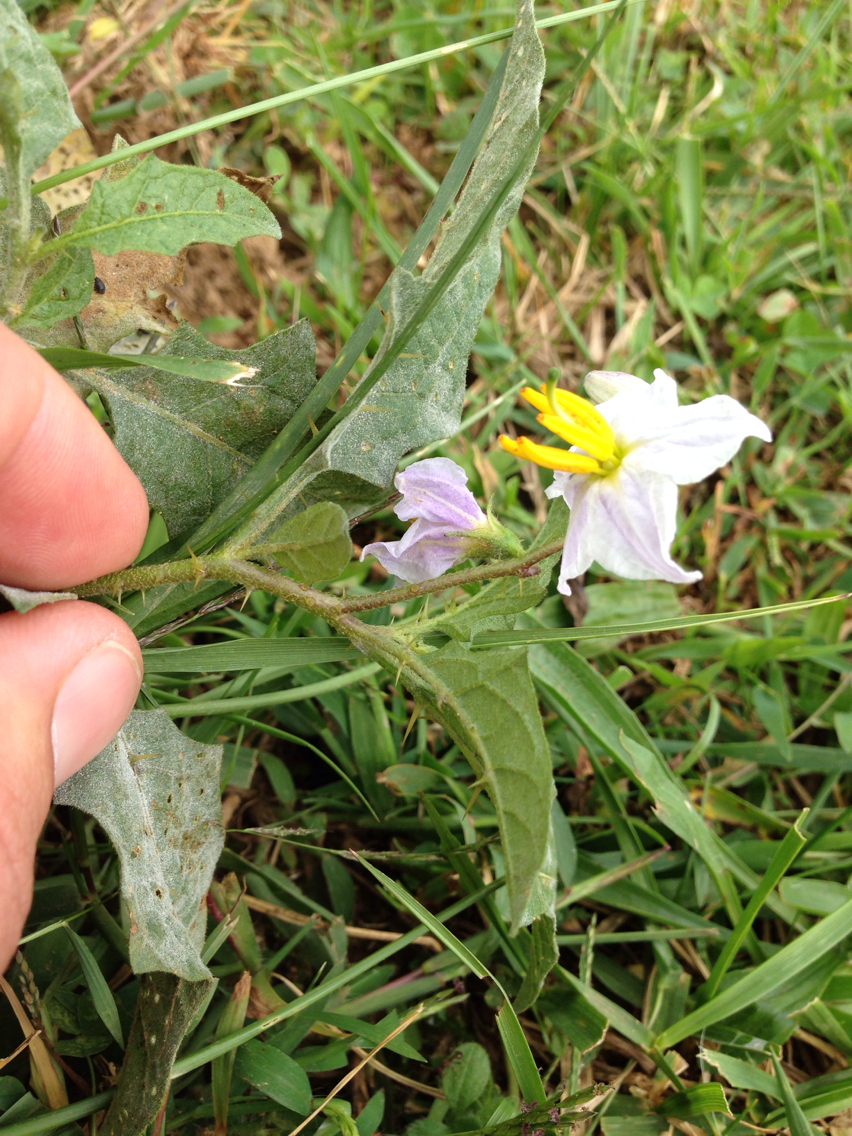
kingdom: Plantae
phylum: Tracheophyta
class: Magnoliopsida
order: Solanales
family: Solanaceae
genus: Solanum
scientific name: Solanum carolinense
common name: Horse-nettle
